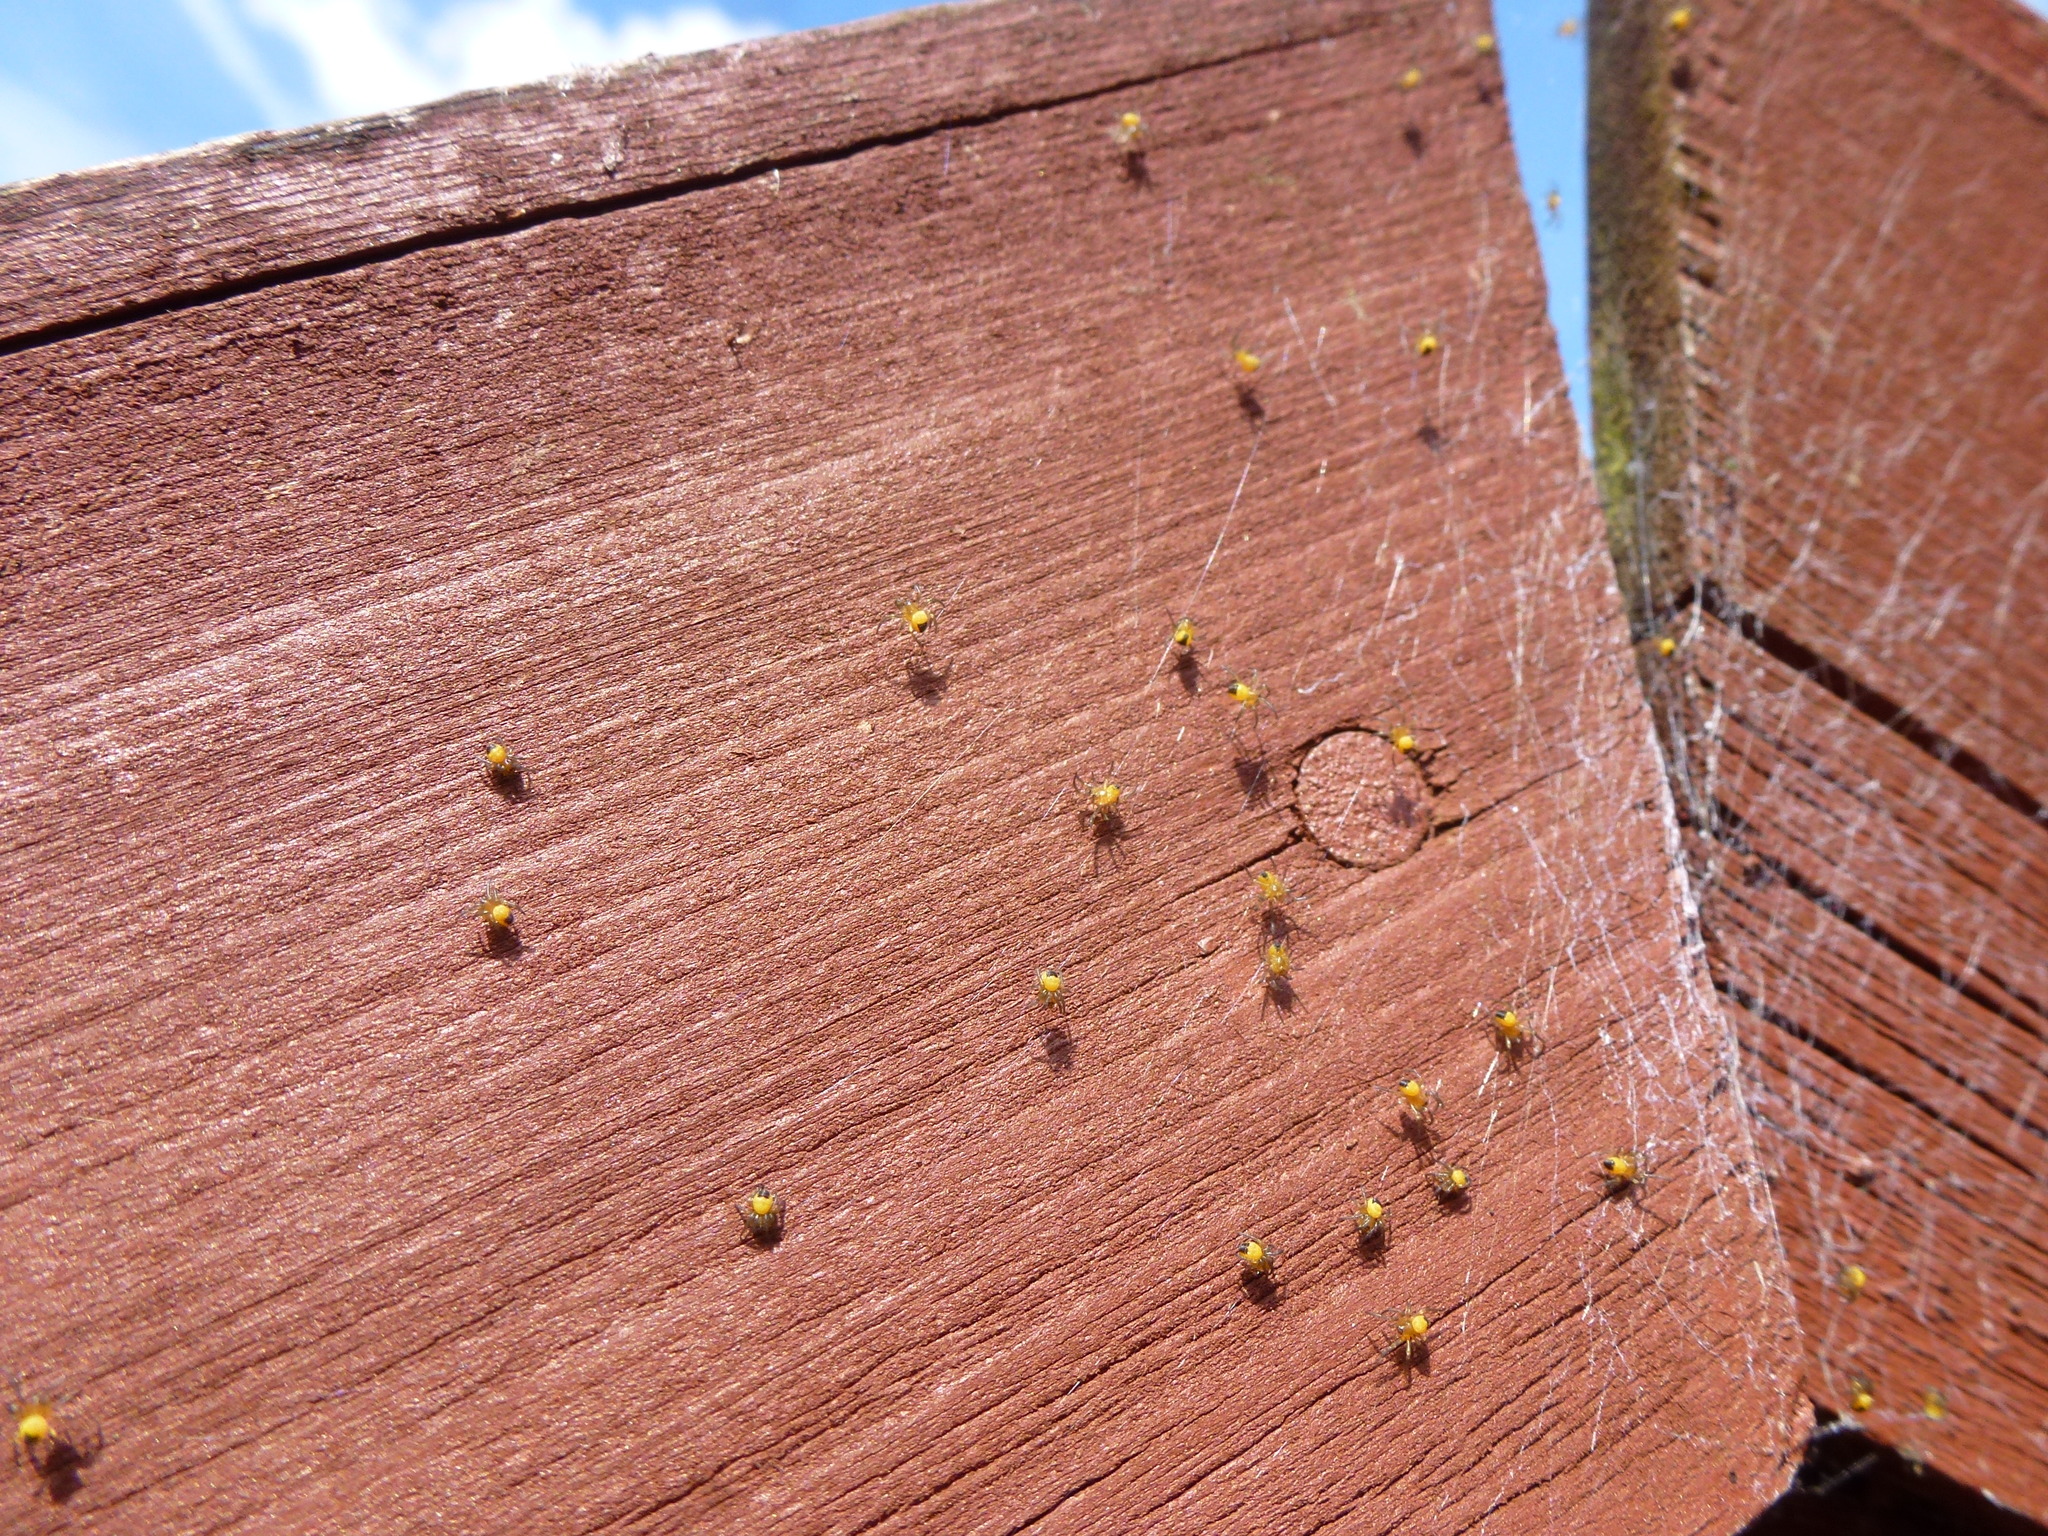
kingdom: Animalia
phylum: Arthropoda
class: Arachnida
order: Araneae
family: Araneidae
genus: Araneus
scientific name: Araneus diadematus
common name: Cross orbweaver
